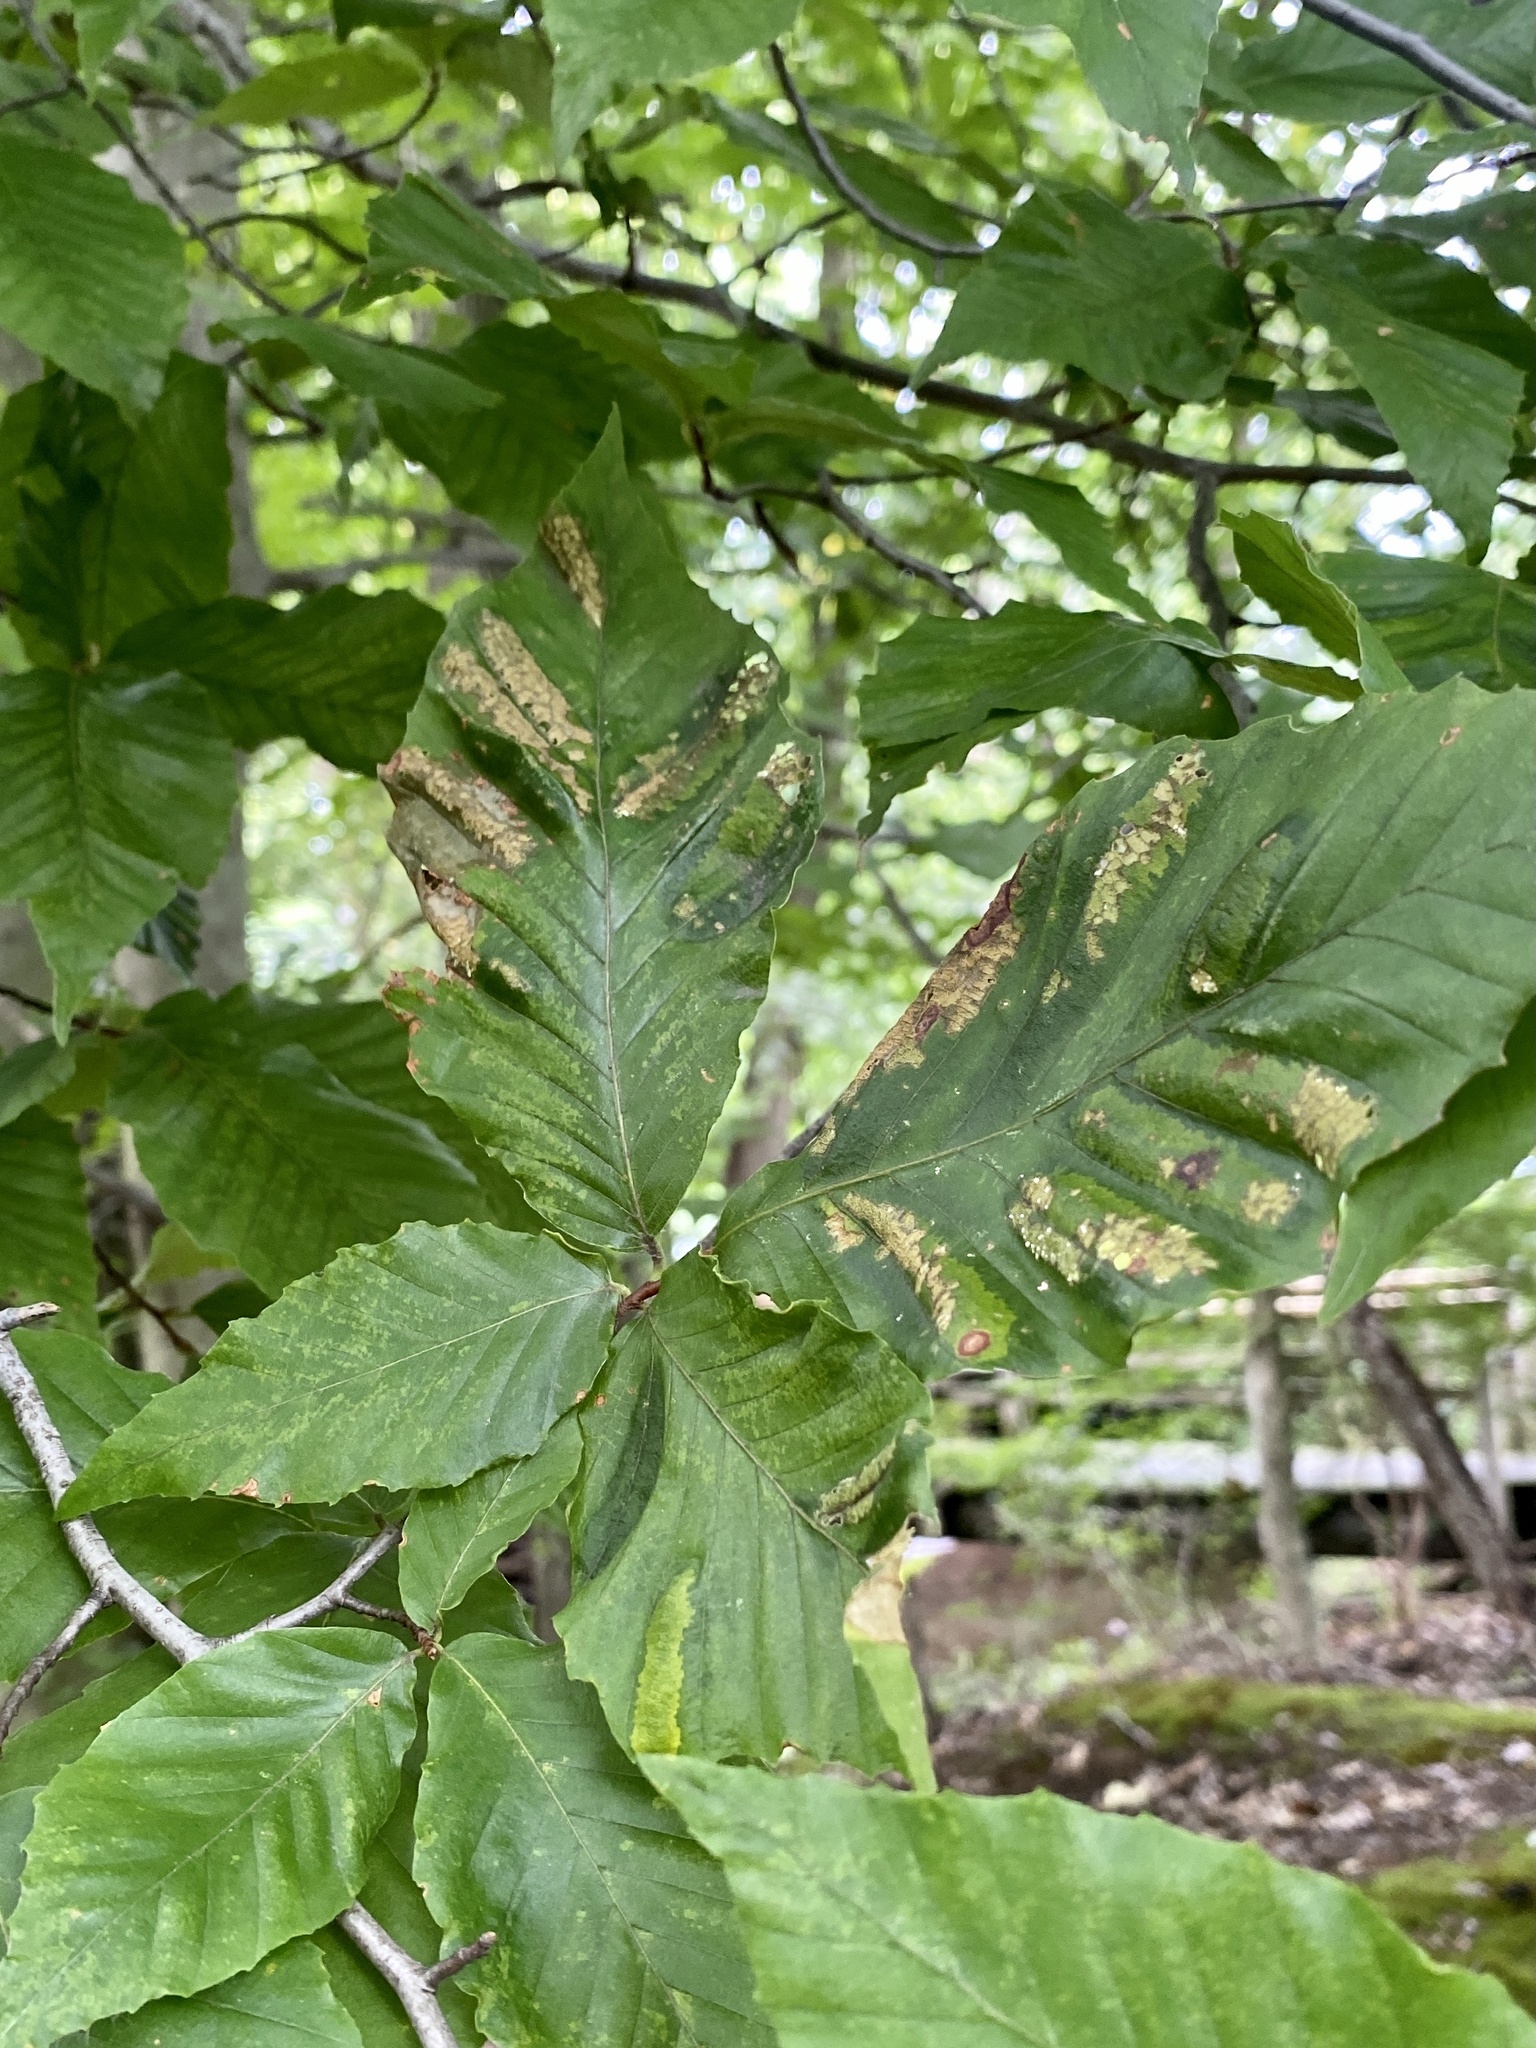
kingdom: Animalia
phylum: Nematoda
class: Chromadorea
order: Rhabditida
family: Anguinidae
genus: Litylenchus
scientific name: Litylenchus crenatae
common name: Beech leaf disease
